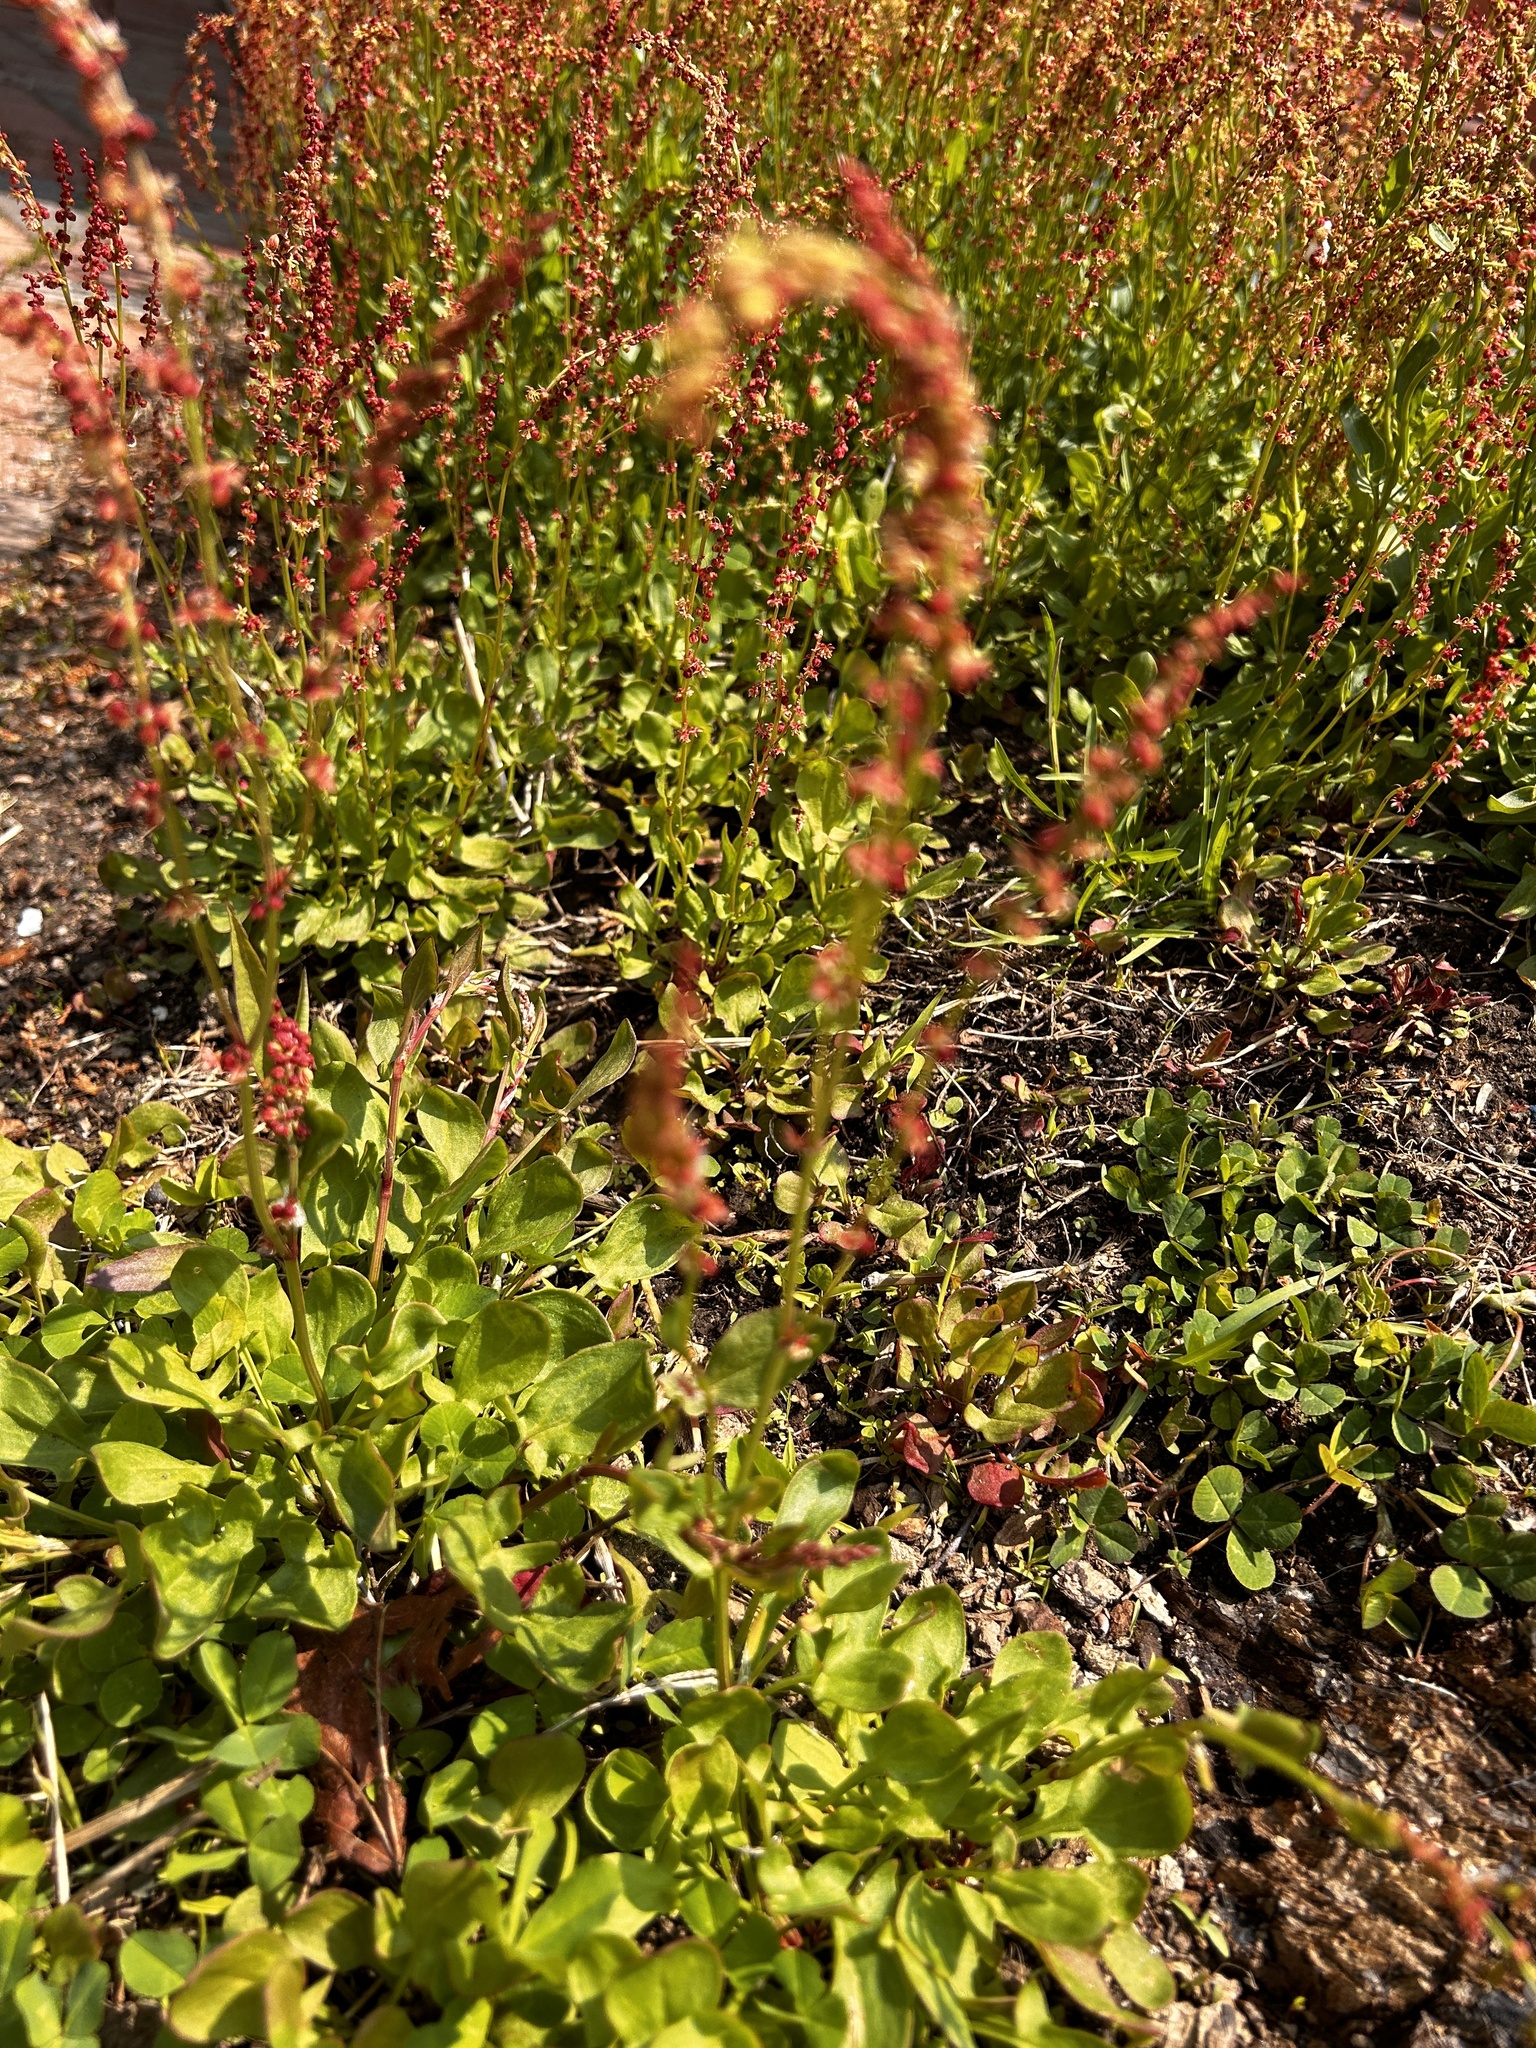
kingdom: Plantae
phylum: Tracheophyta
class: Magnoliopsida
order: Caryophyllales
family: Polygonaceae
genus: Rumex
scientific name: Rumex acetosella
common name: Common sheep sorrel
